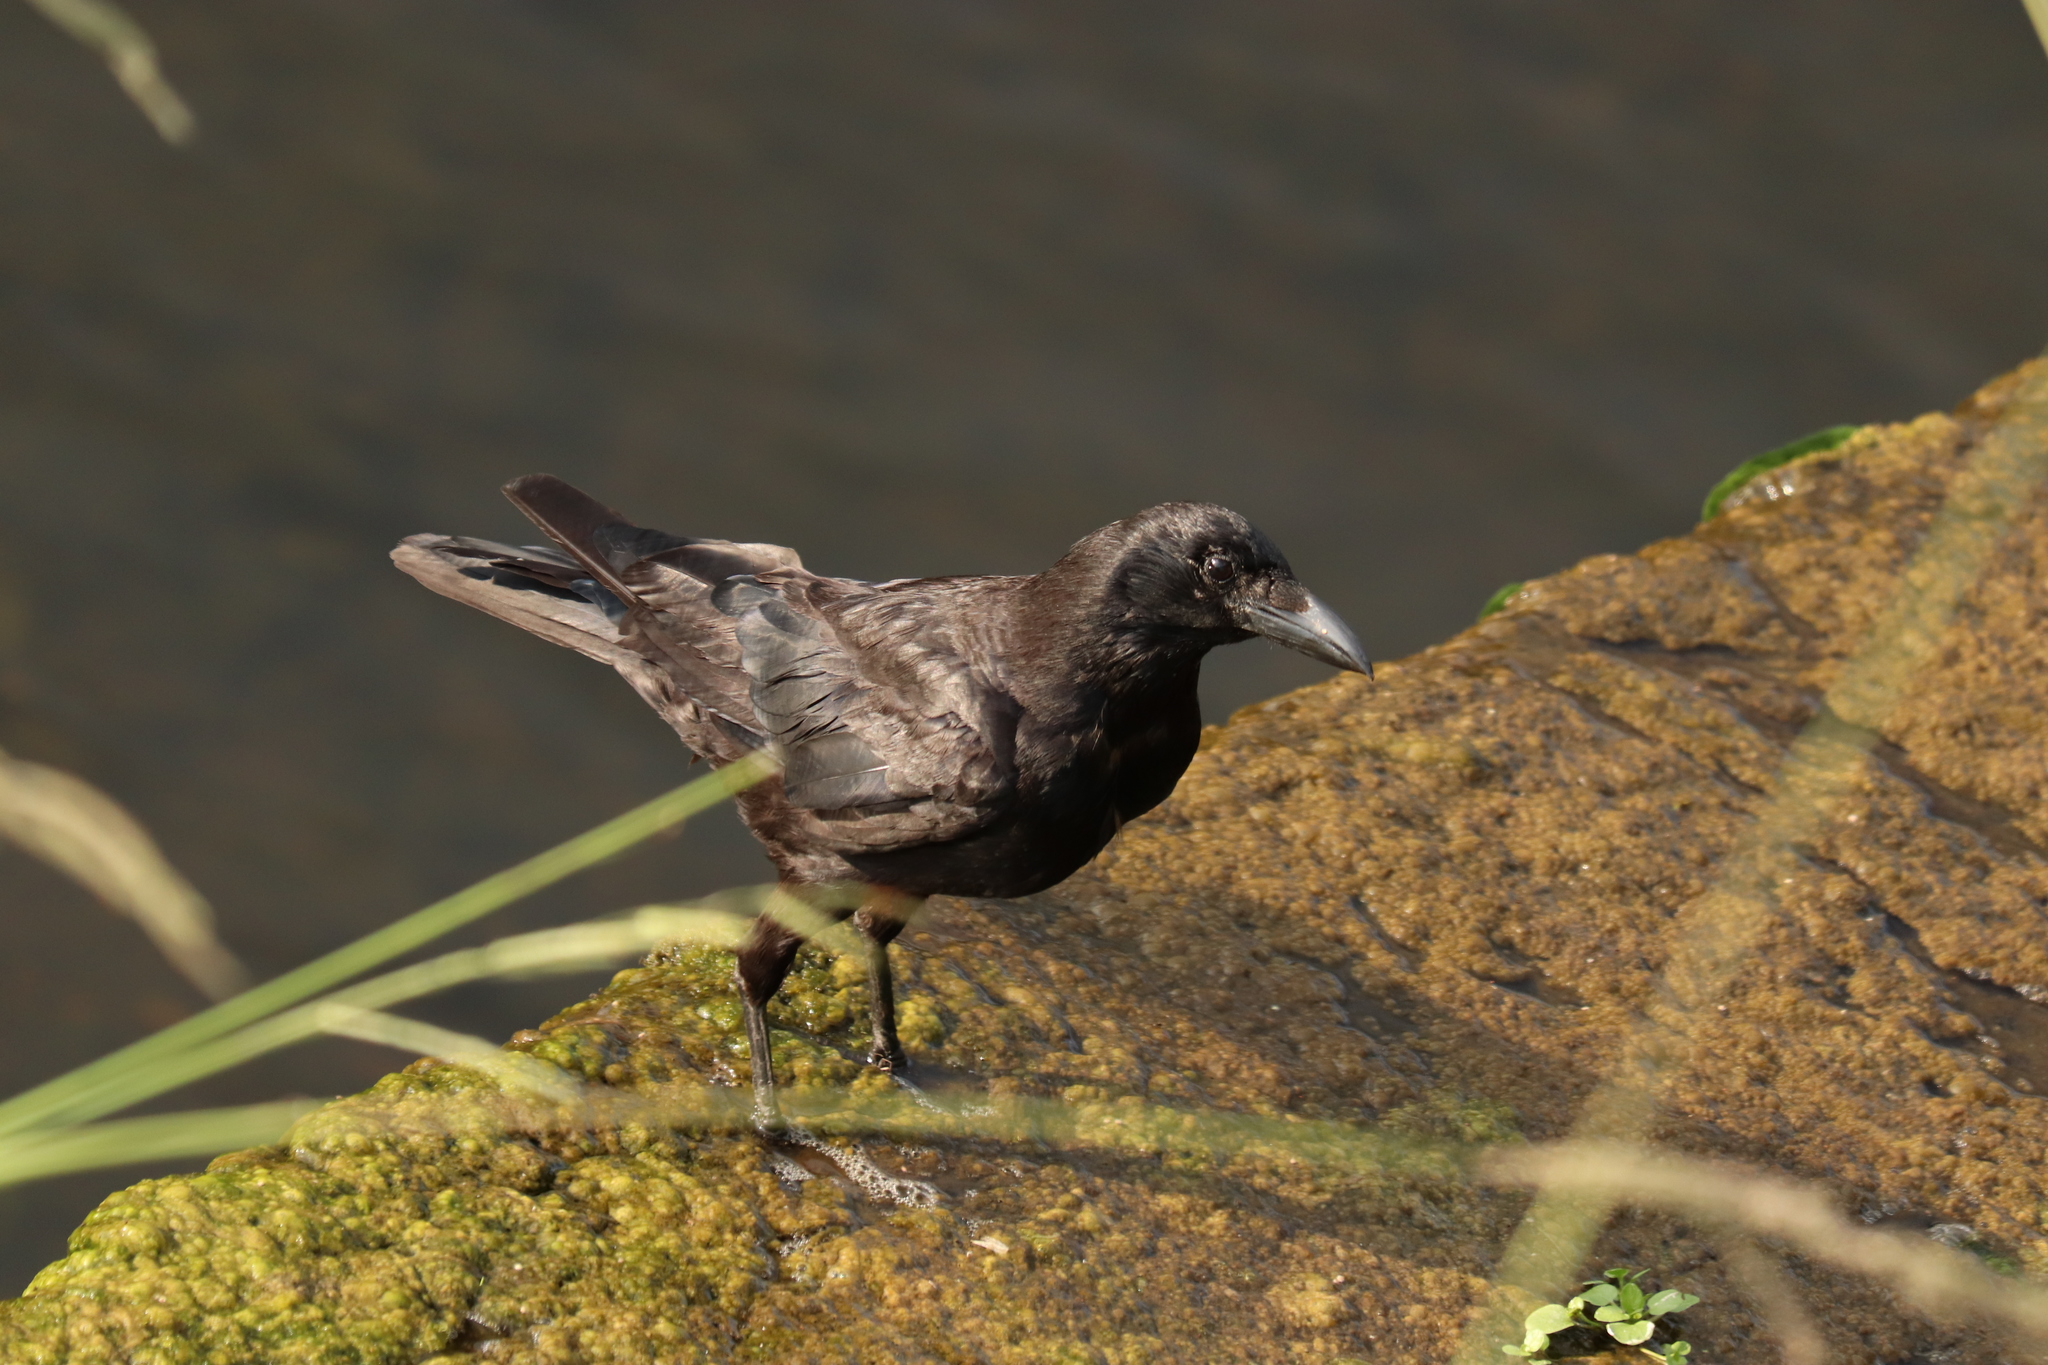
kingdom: Animalia
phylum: Chordata
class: Aves
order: Passeriformes
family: Corvidae
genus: Corvus
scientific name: Corvus corone
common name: Carrion crow
